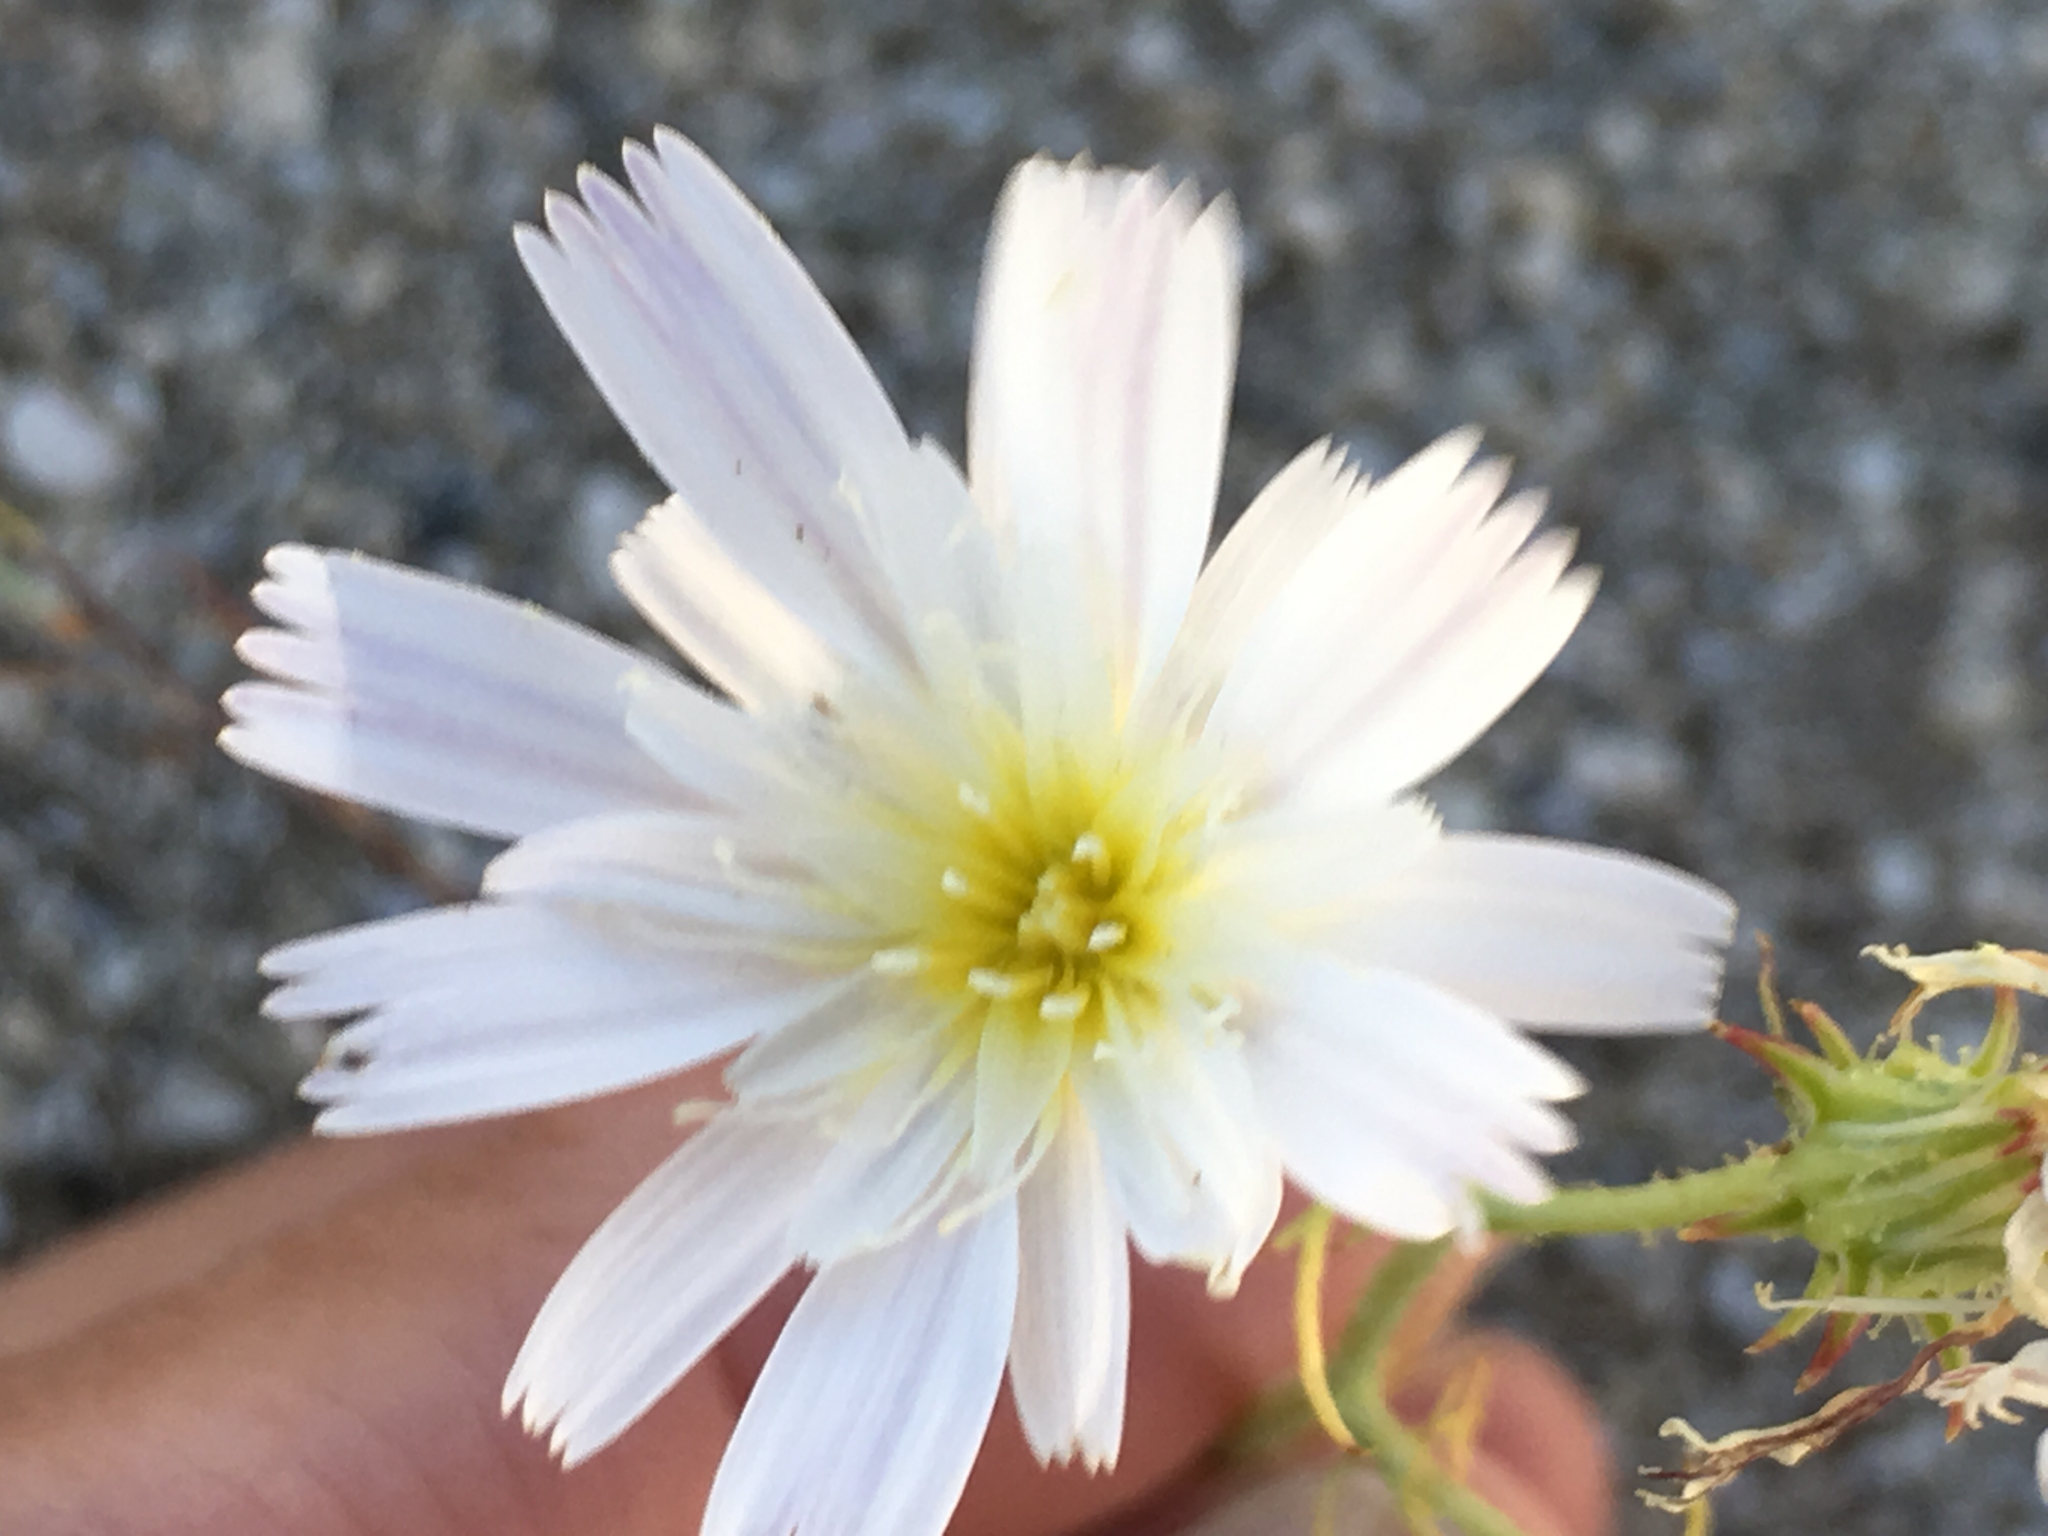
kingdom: Plantae
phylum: Tracheophyta
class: Magnoliopsida
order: Asterales
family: Asteraceae
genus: Calycoseris
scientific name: Calycoseris wrightii
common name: White tackstem
